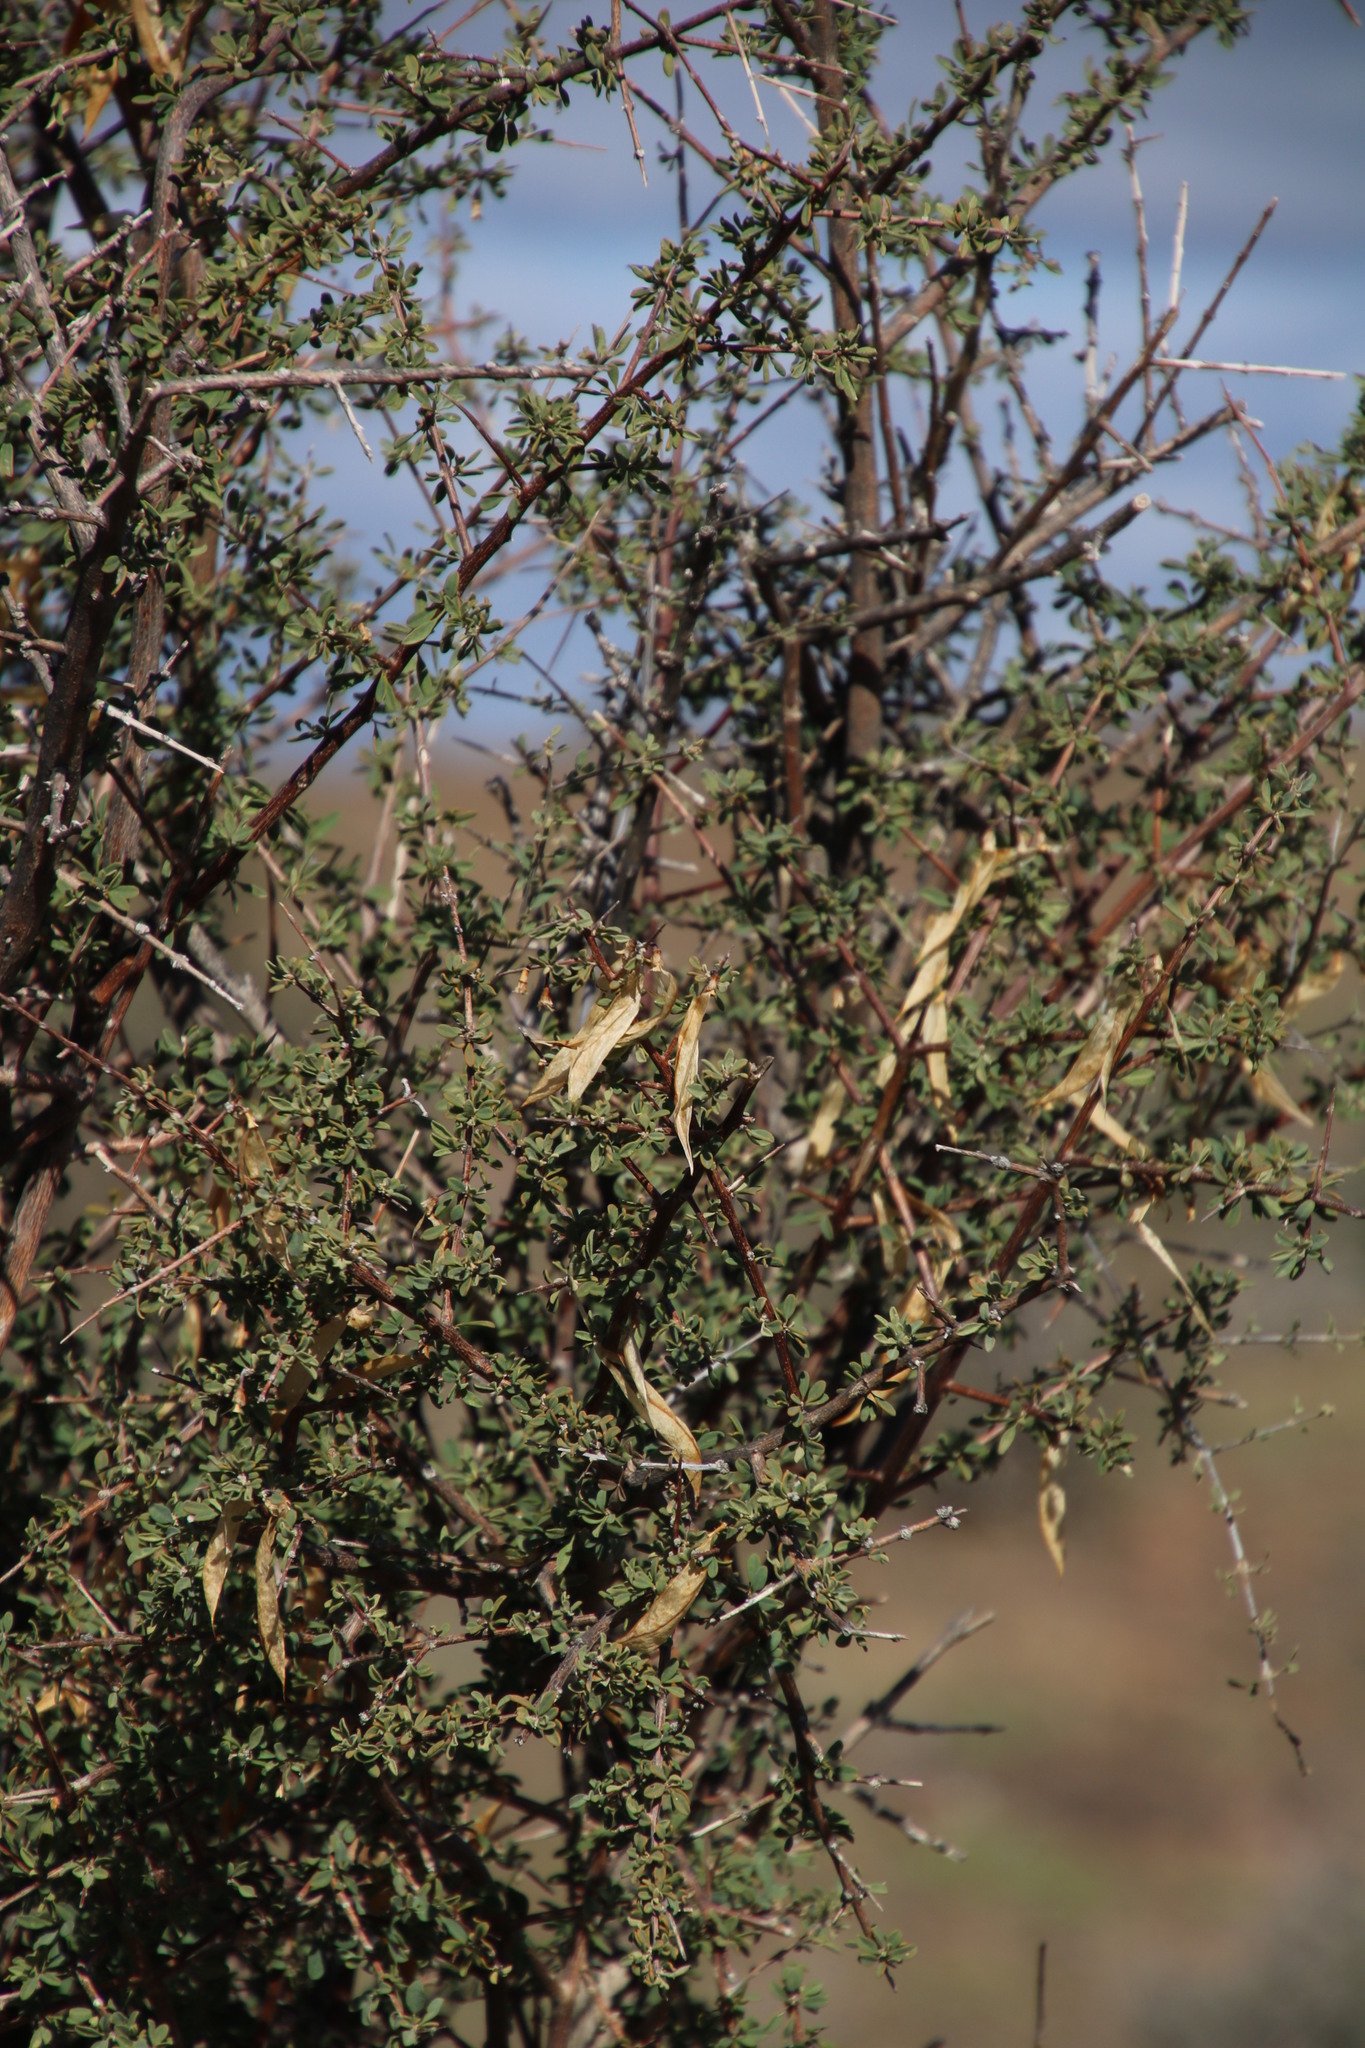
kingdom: Plantae
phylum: Tracheophyta
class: Magnoliopsida
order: Lamiales
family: Bignoniaceae
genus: Rhigozum
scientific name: Rhigozum obovatum
